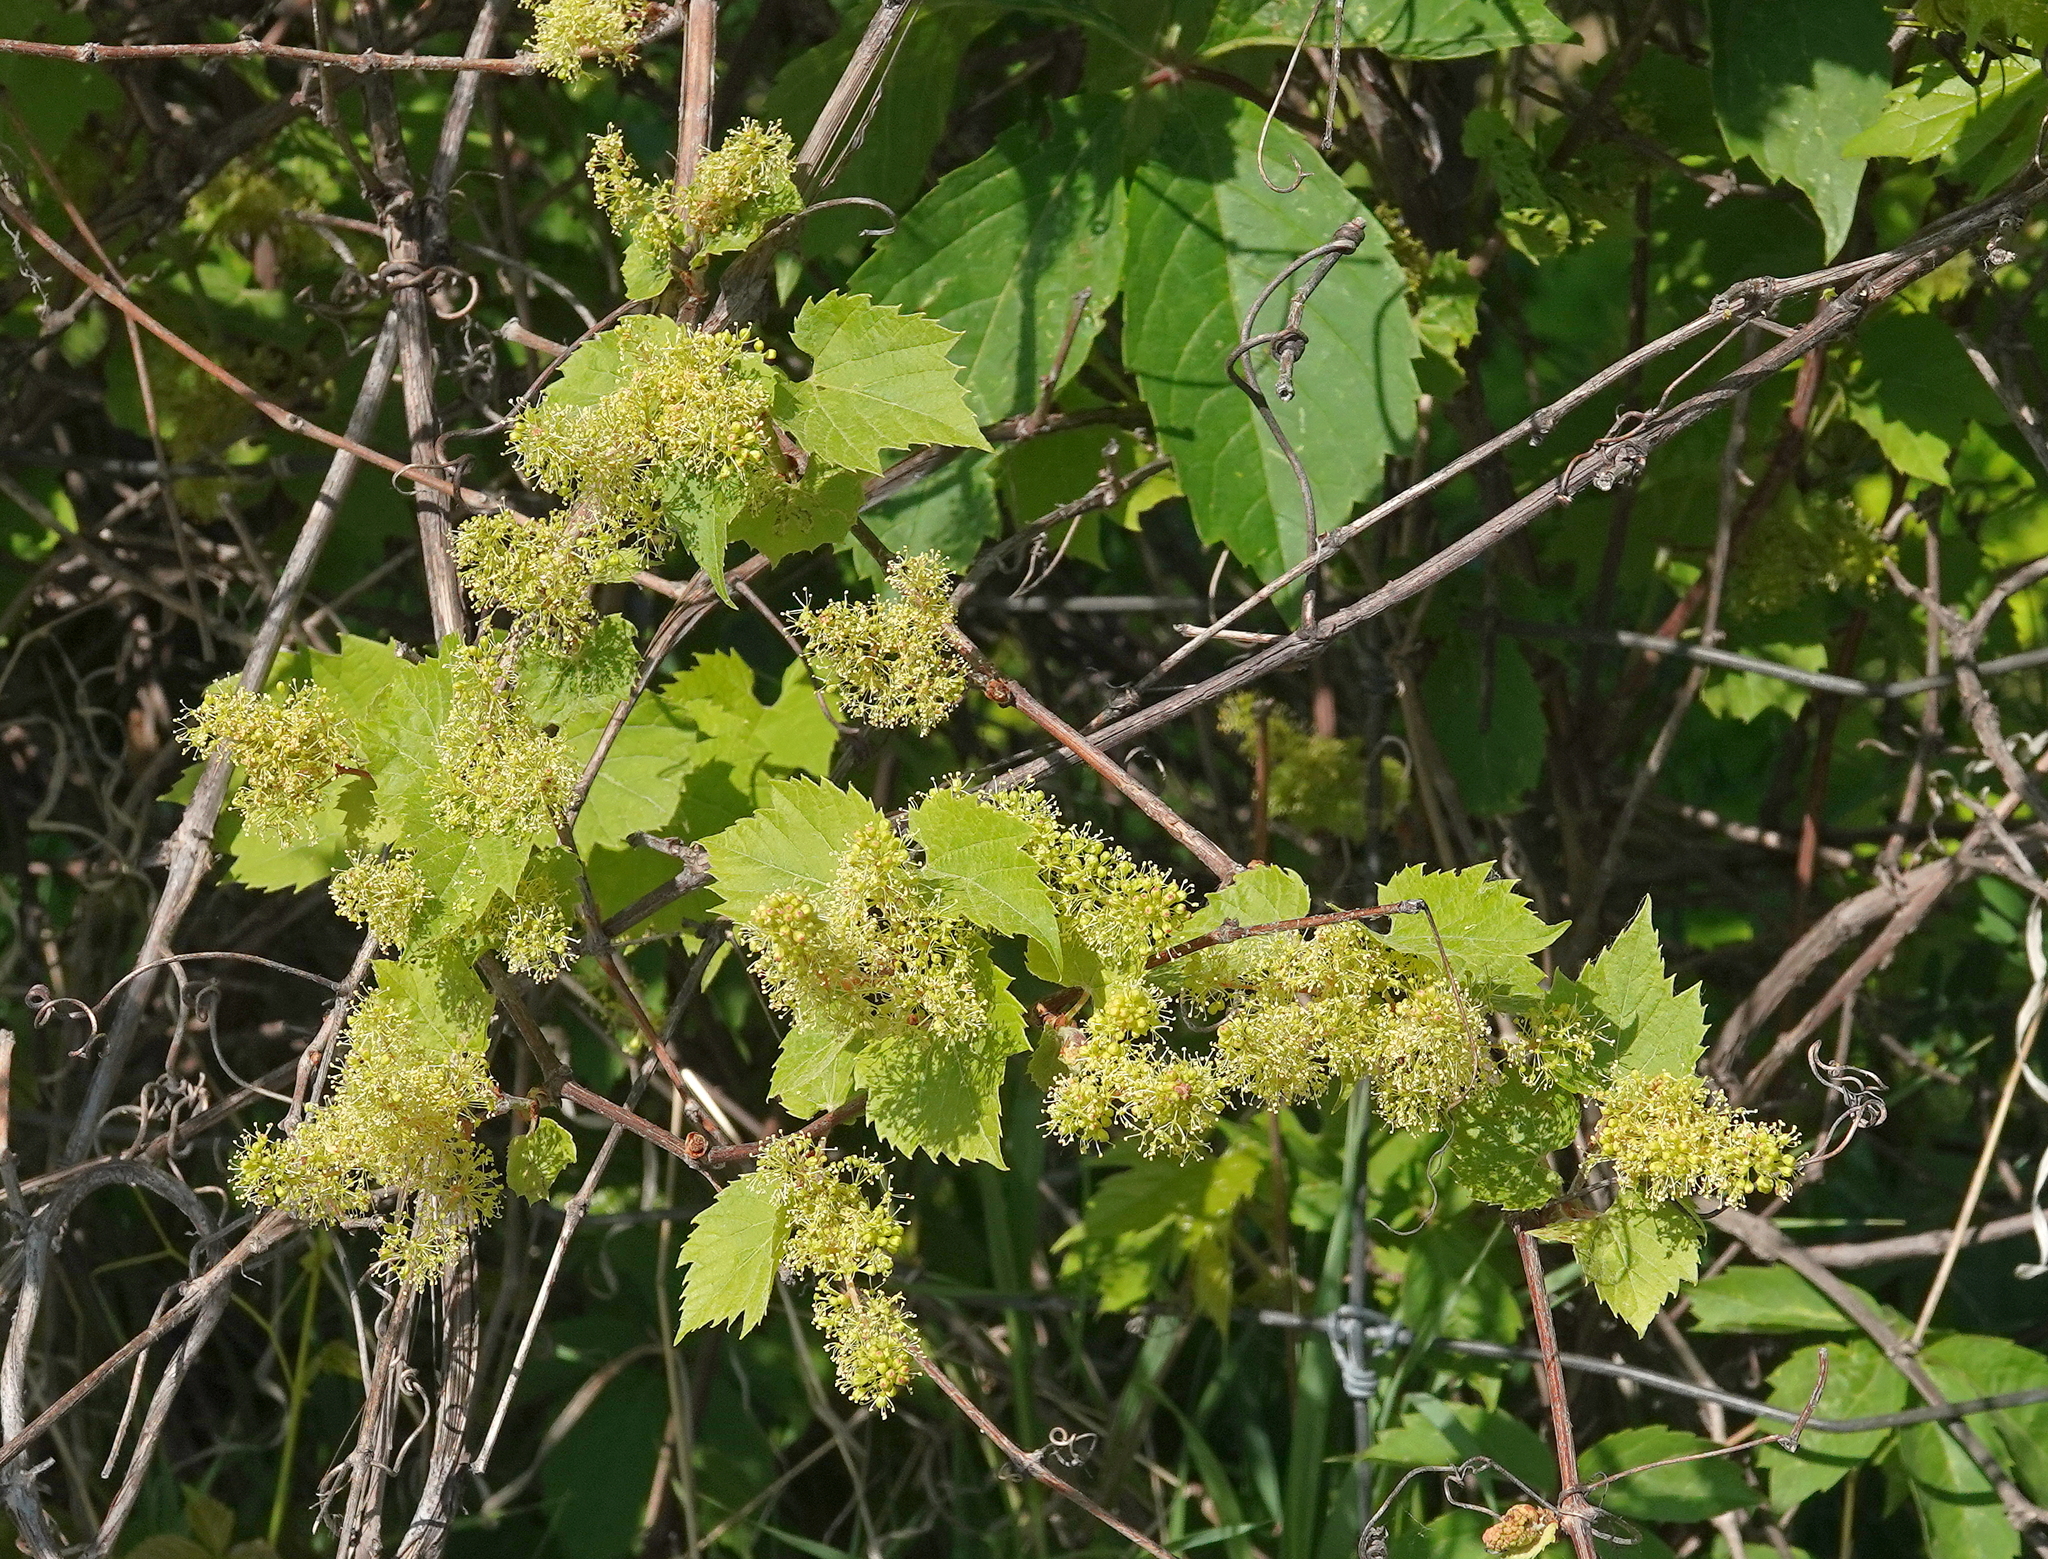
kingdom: Plantae
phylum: Tracheophyta
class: Magnoliopsida
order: Vitales
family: Vitaceae
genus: Vitis
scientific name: Vitis riparia
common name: Frost grape
